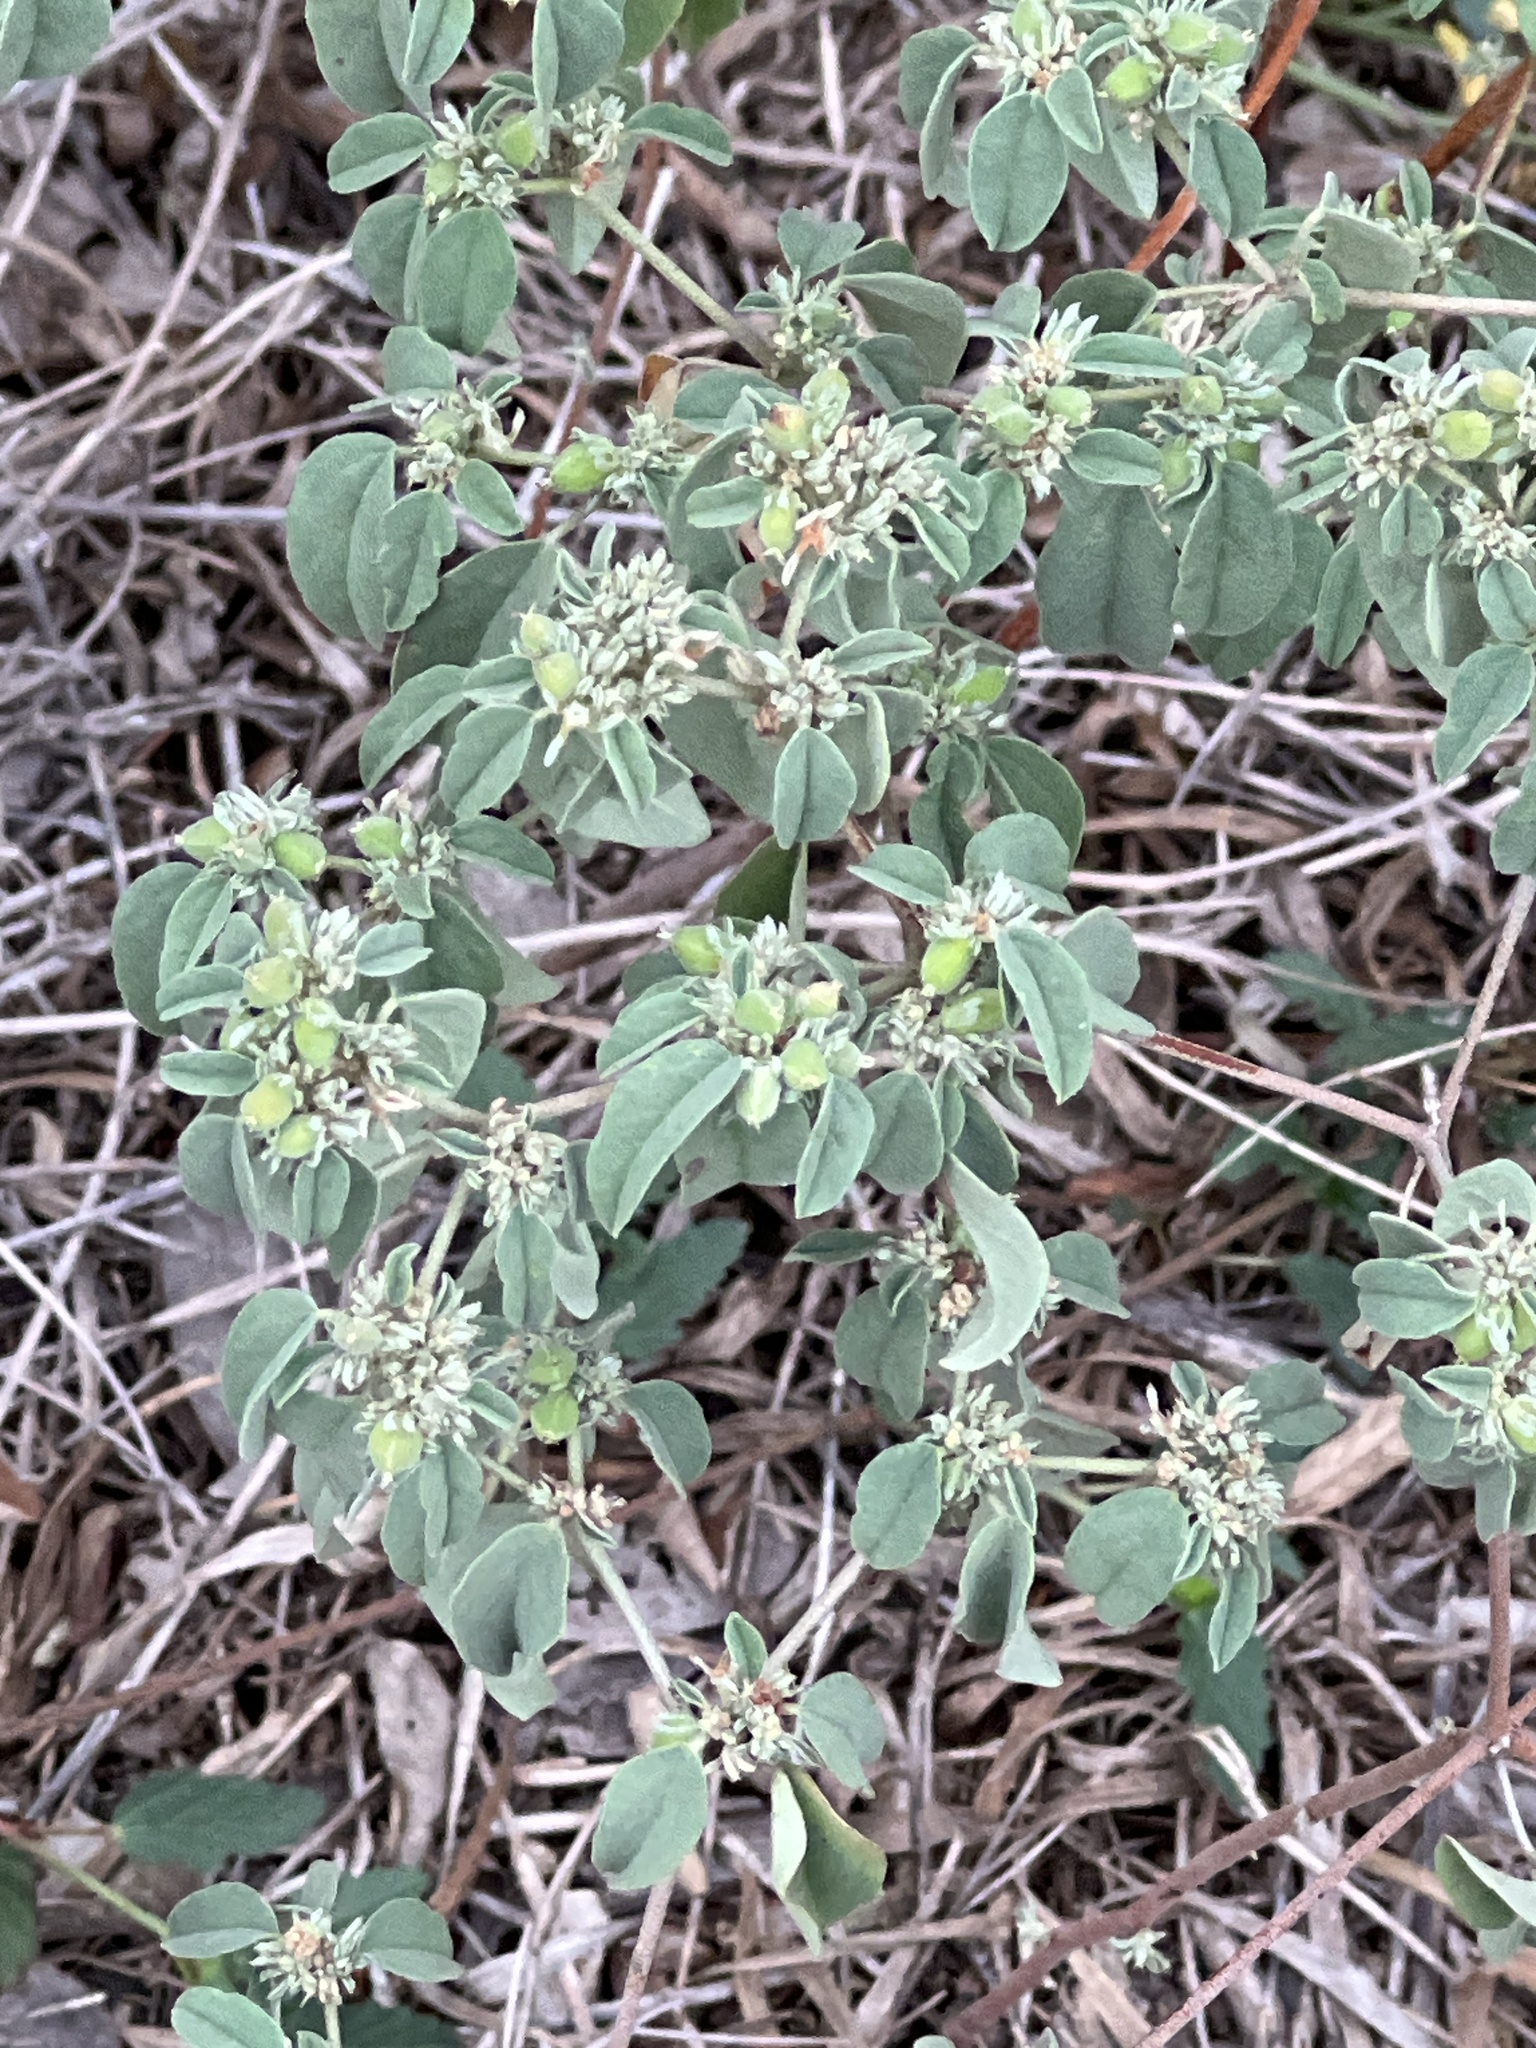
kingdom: Plantae
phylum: Tracheophyta
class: Magnoliopsida
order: Malpighiales
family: Euphorbiaceae
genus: Croton
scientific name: Croton monanthogynus
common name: One-seed croton
